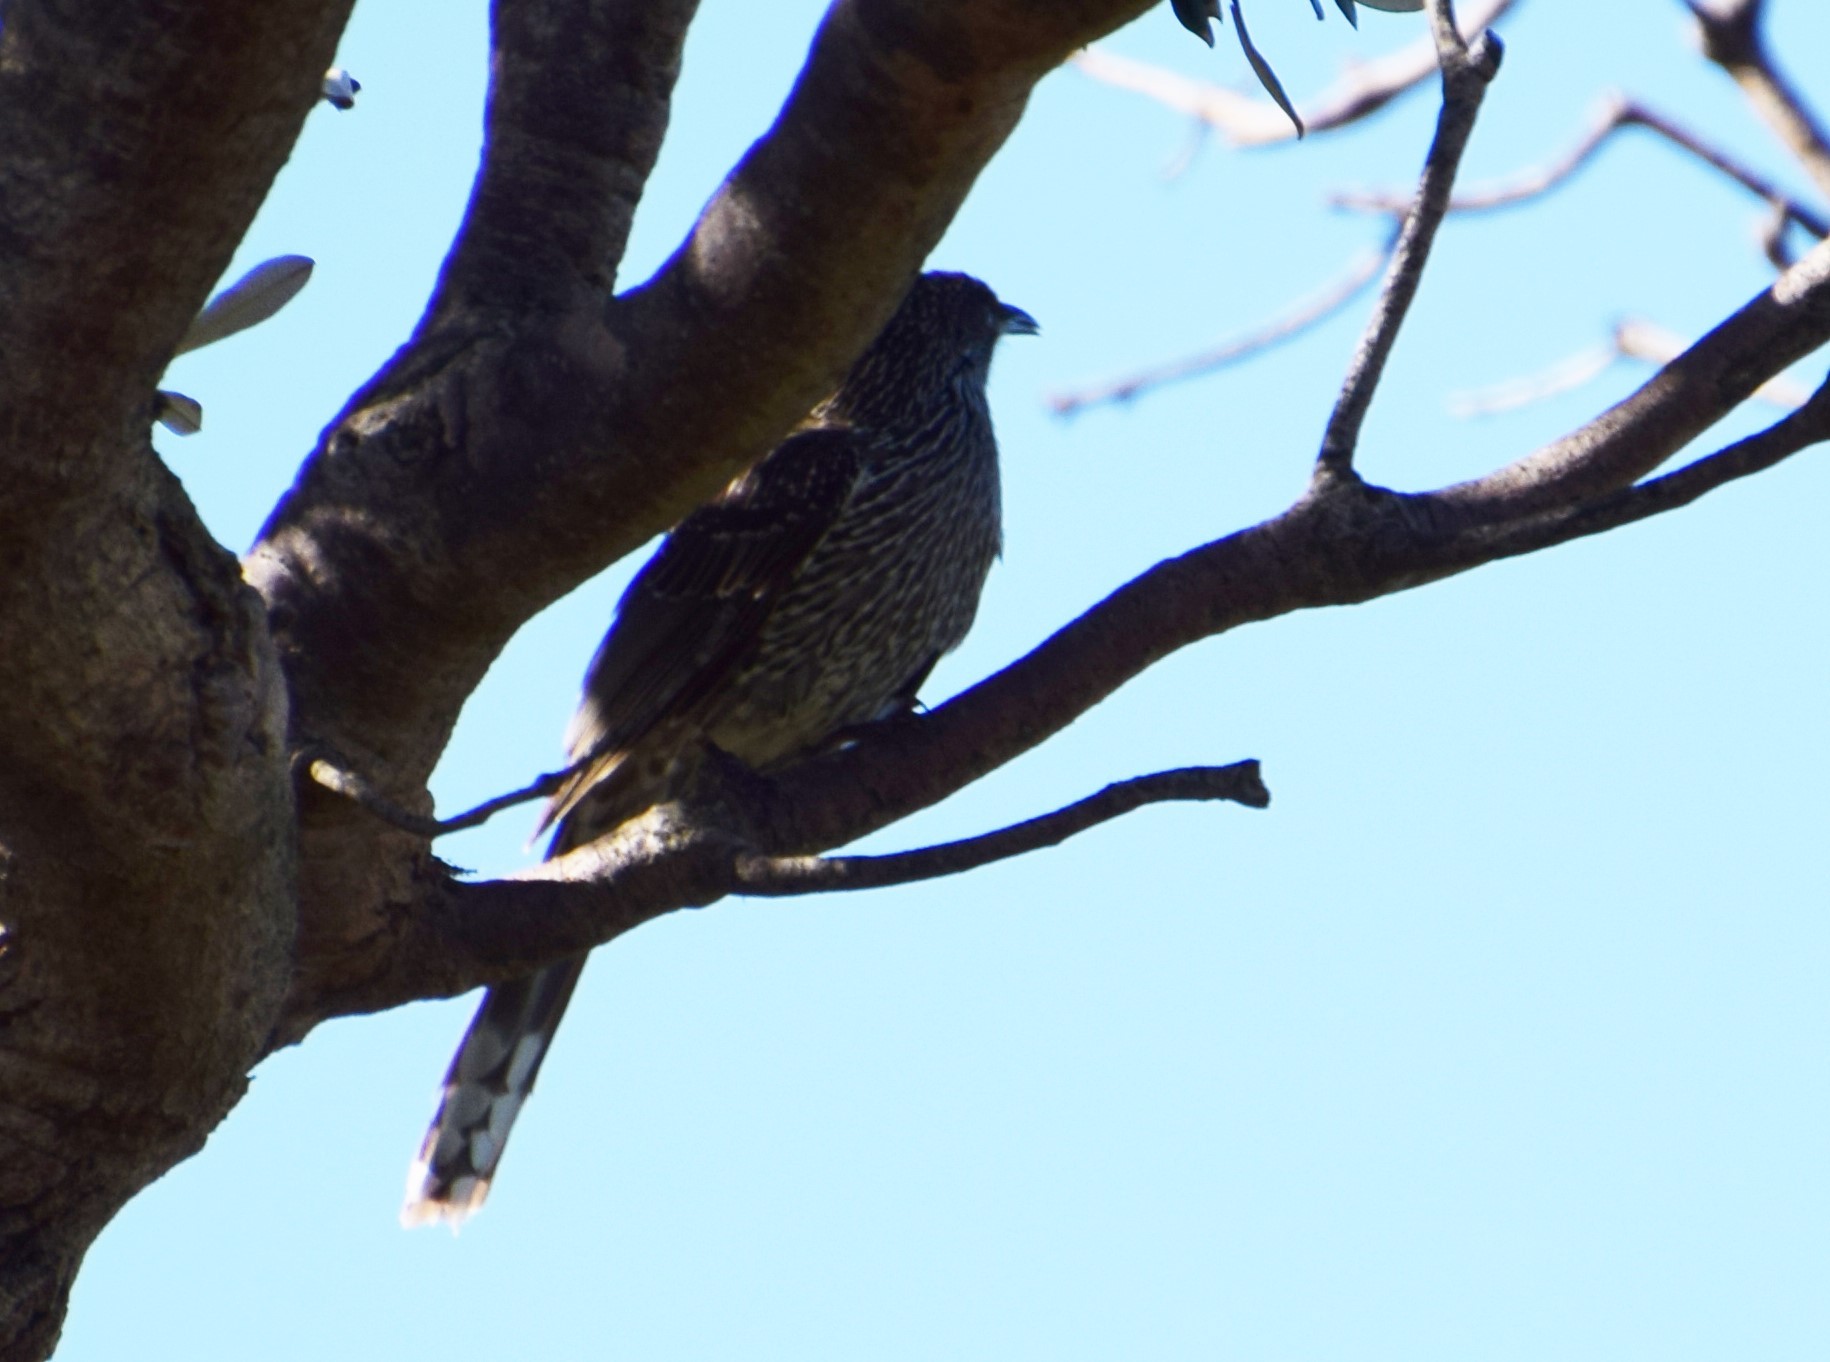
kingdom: Animalia
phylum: Chordata
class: Aves
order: Passeriformes
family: Meliphagidae
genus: Anthochaera
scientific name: Anthochaera chrysoptera
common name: Little wattlebird
